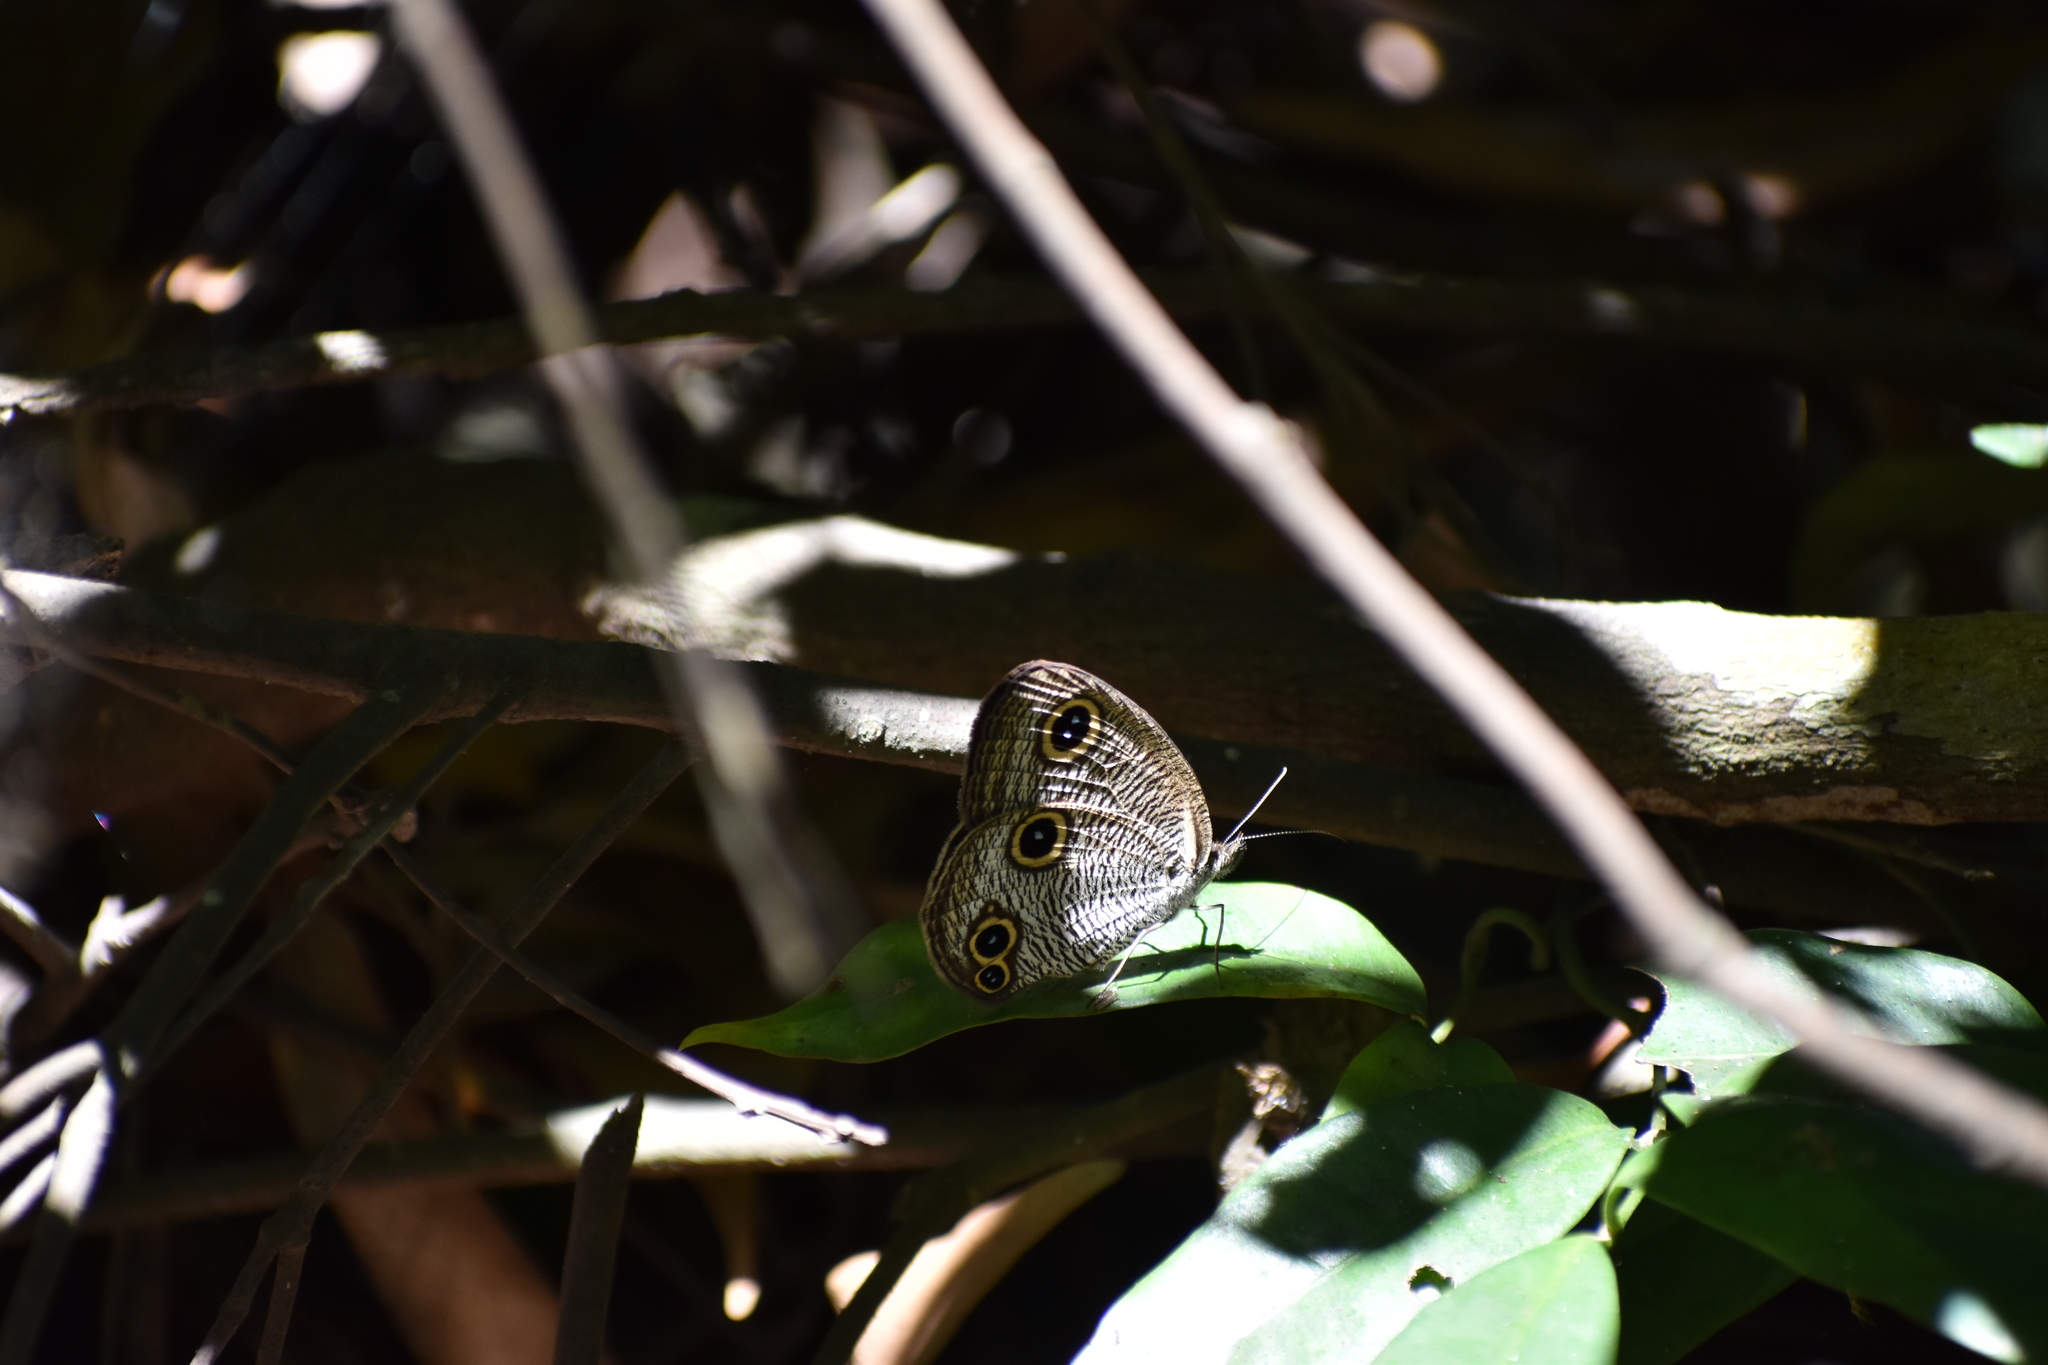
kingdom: Animalia
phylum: Arthropoda
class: Insecta
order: Lepidoptera
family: Nymphalidae
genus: Ypthima
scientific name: Ypthima praenubila
